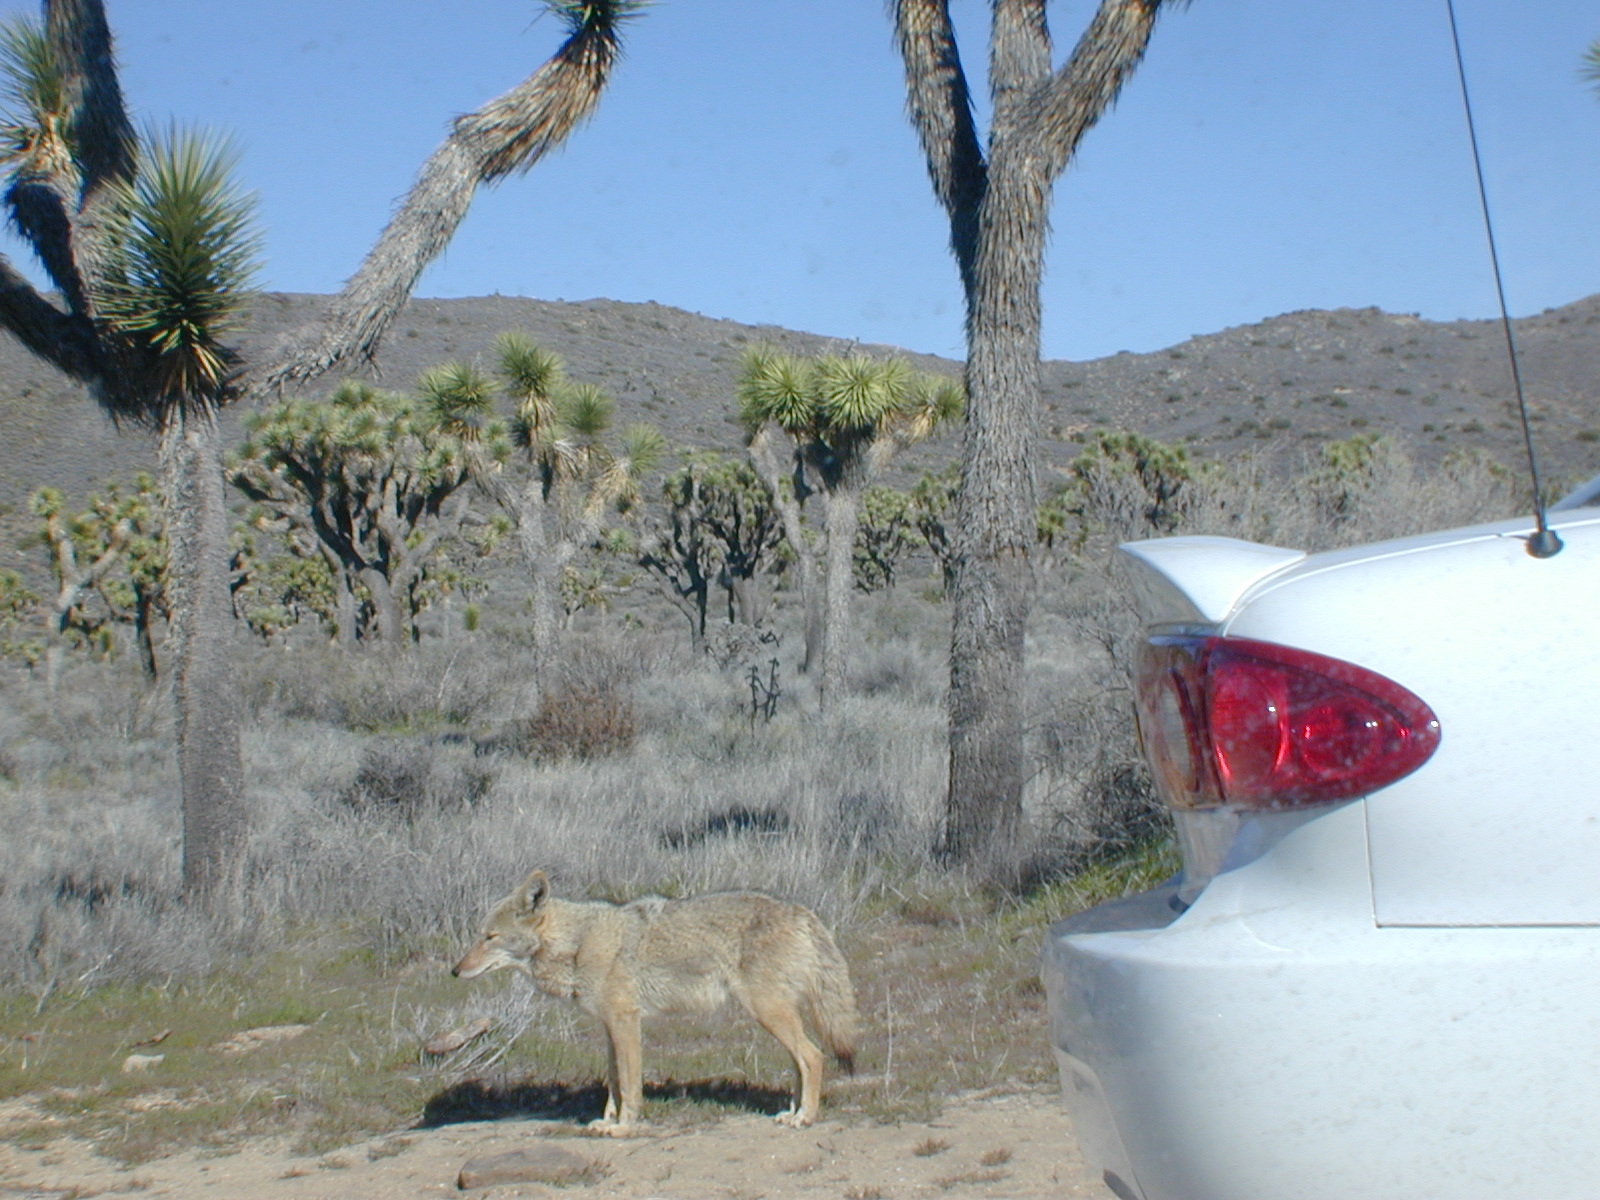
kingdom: Animalia
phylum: Chordata
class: Mammalia
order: Carnivora
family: Canidae
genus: Canis
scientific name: Canis latrans
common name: Coyote
